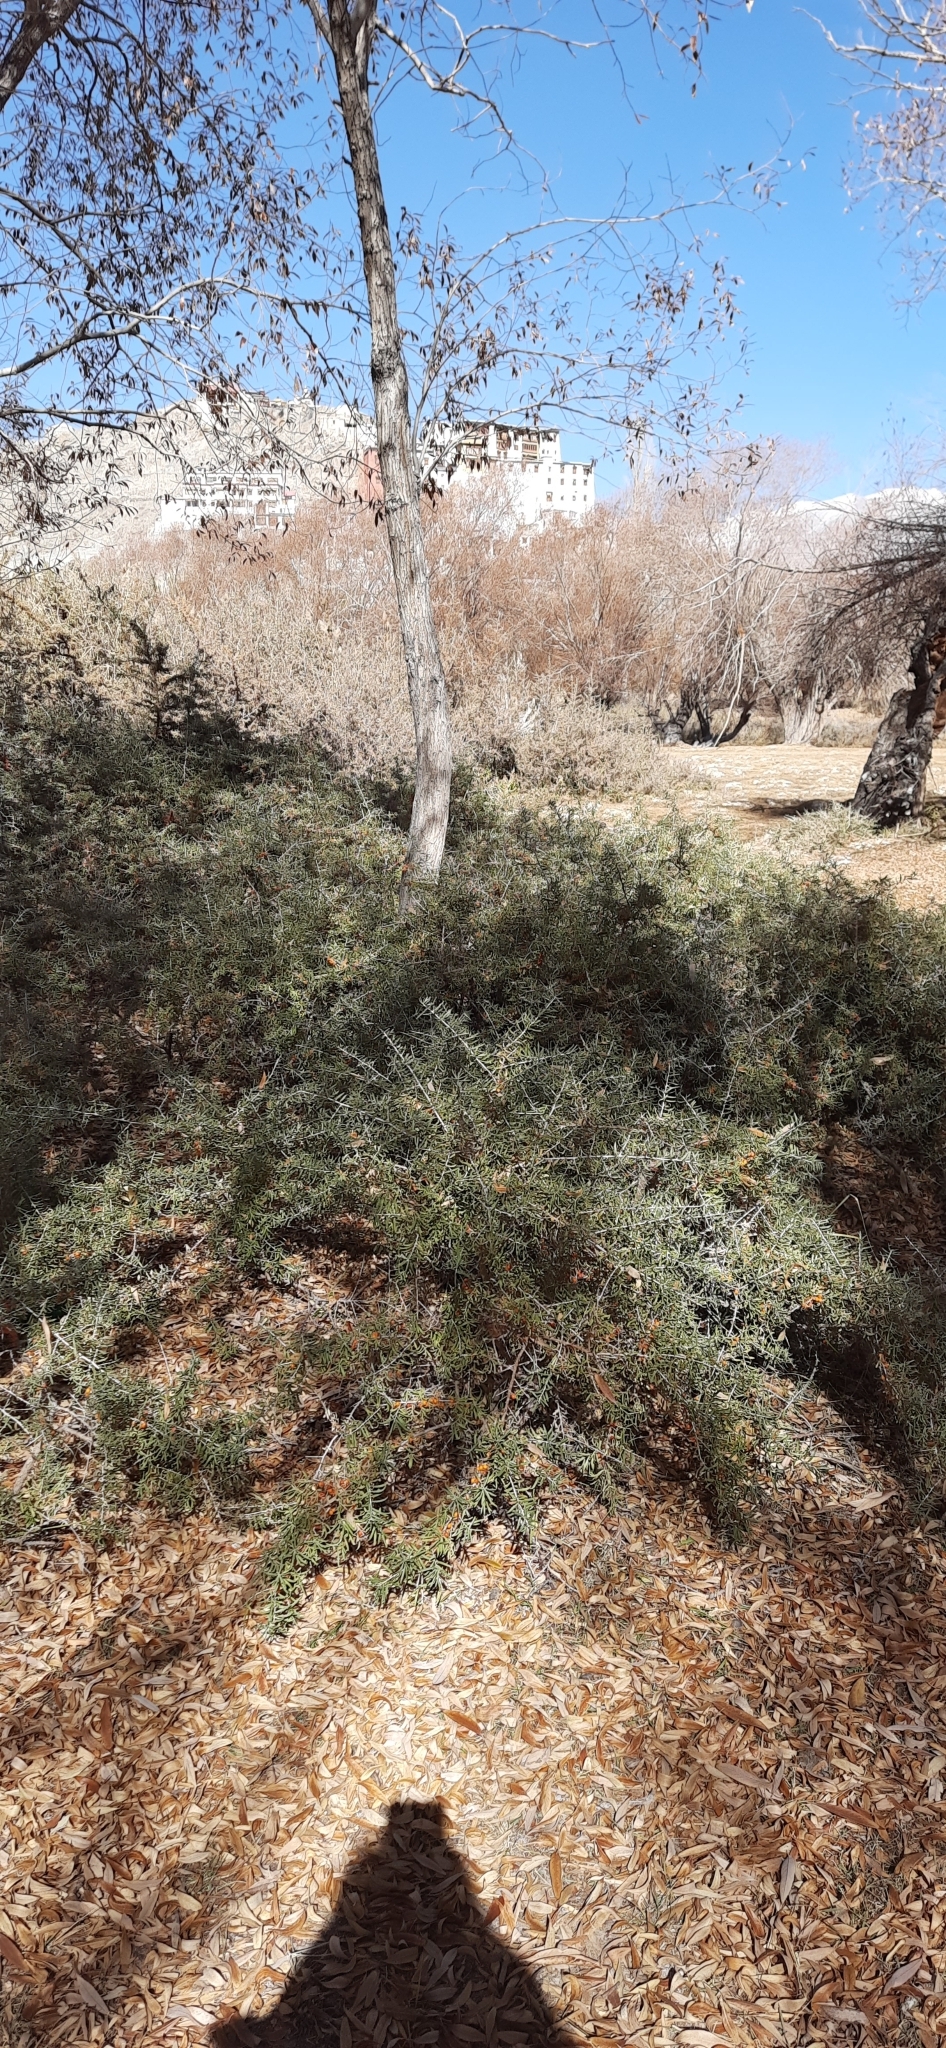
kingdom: Plantae
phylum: Tracheophyta
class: Magnoliopsida
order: Rosales
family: Elaeagnaceae
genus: Hippophae
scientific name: Hippophae rhamnoides
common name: Sea-buckthorn
